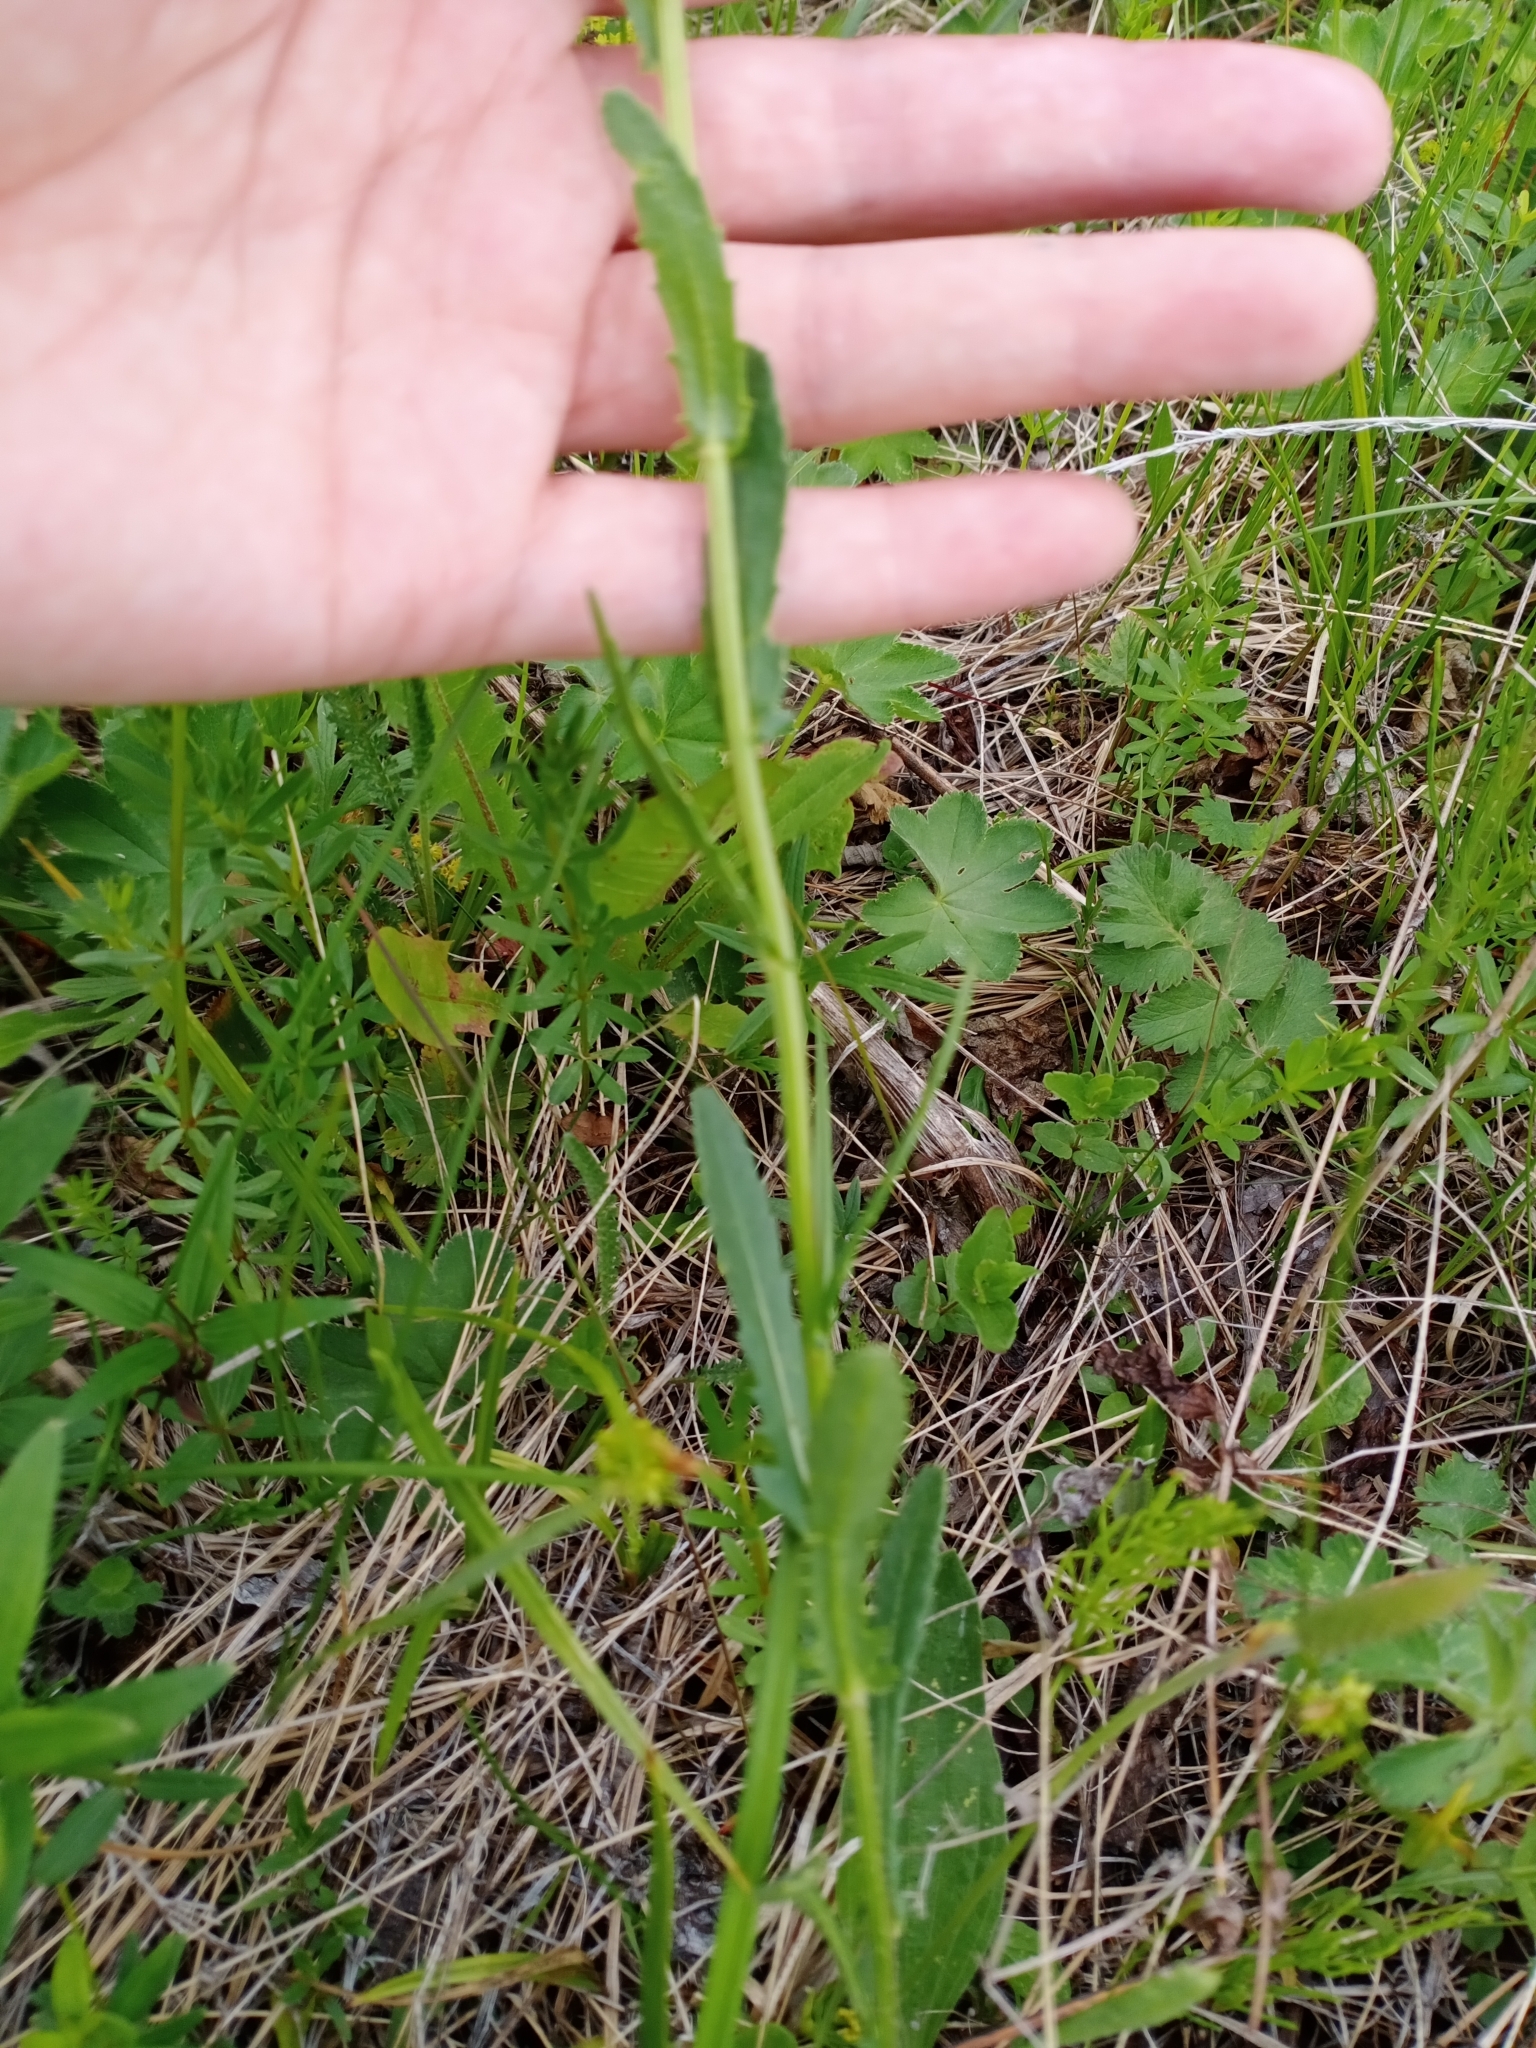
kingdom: Plantae
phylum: Tracheophyta
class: Magnoliopsida
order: Asterales
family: Asteraceae
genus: Leucanthemum
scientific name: Leucanthemum vulgare
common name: Oxeye daisy
